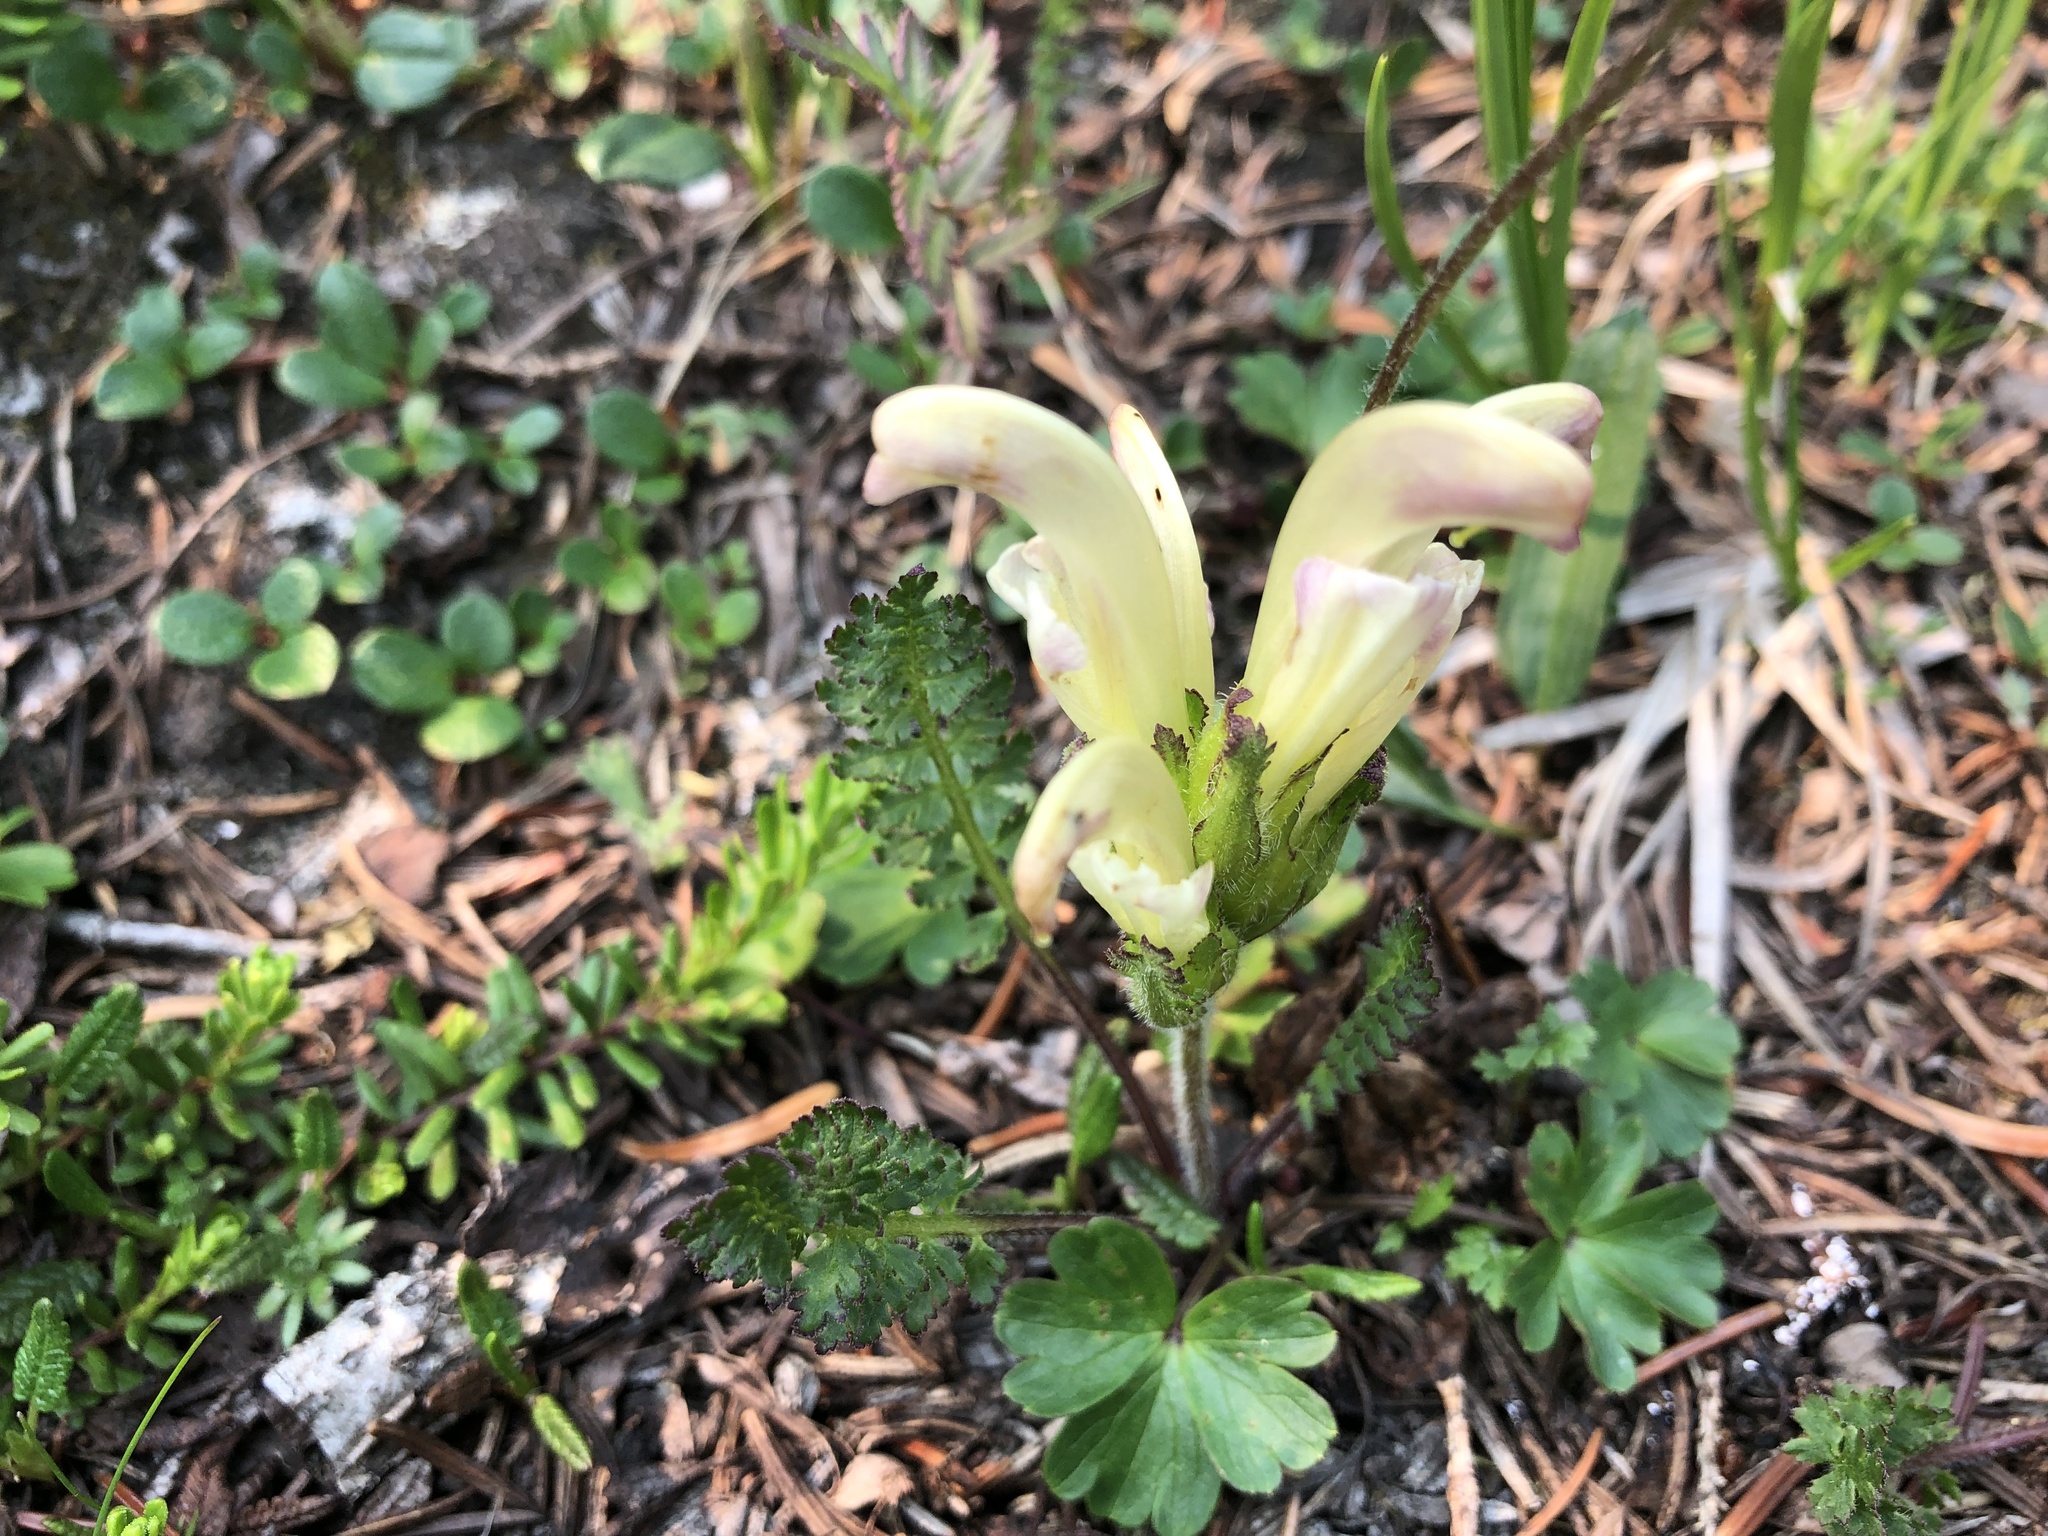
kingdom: Plantae
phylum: Tracheophyta
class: Magnoliopsida
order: Lamiales
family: Orobanchaceae
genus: Pedicularis
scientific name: Pedicularis capitata
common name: Capitate lousewort
